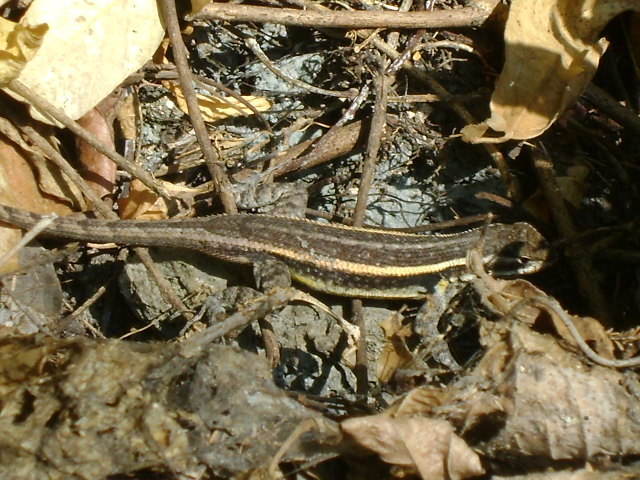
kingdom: Animalia
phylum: Chordata
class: Squamata
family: Phrynosomatidae
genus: Sceloporus
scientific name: Sceloporus variabilis
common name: Rosebelly lizard
